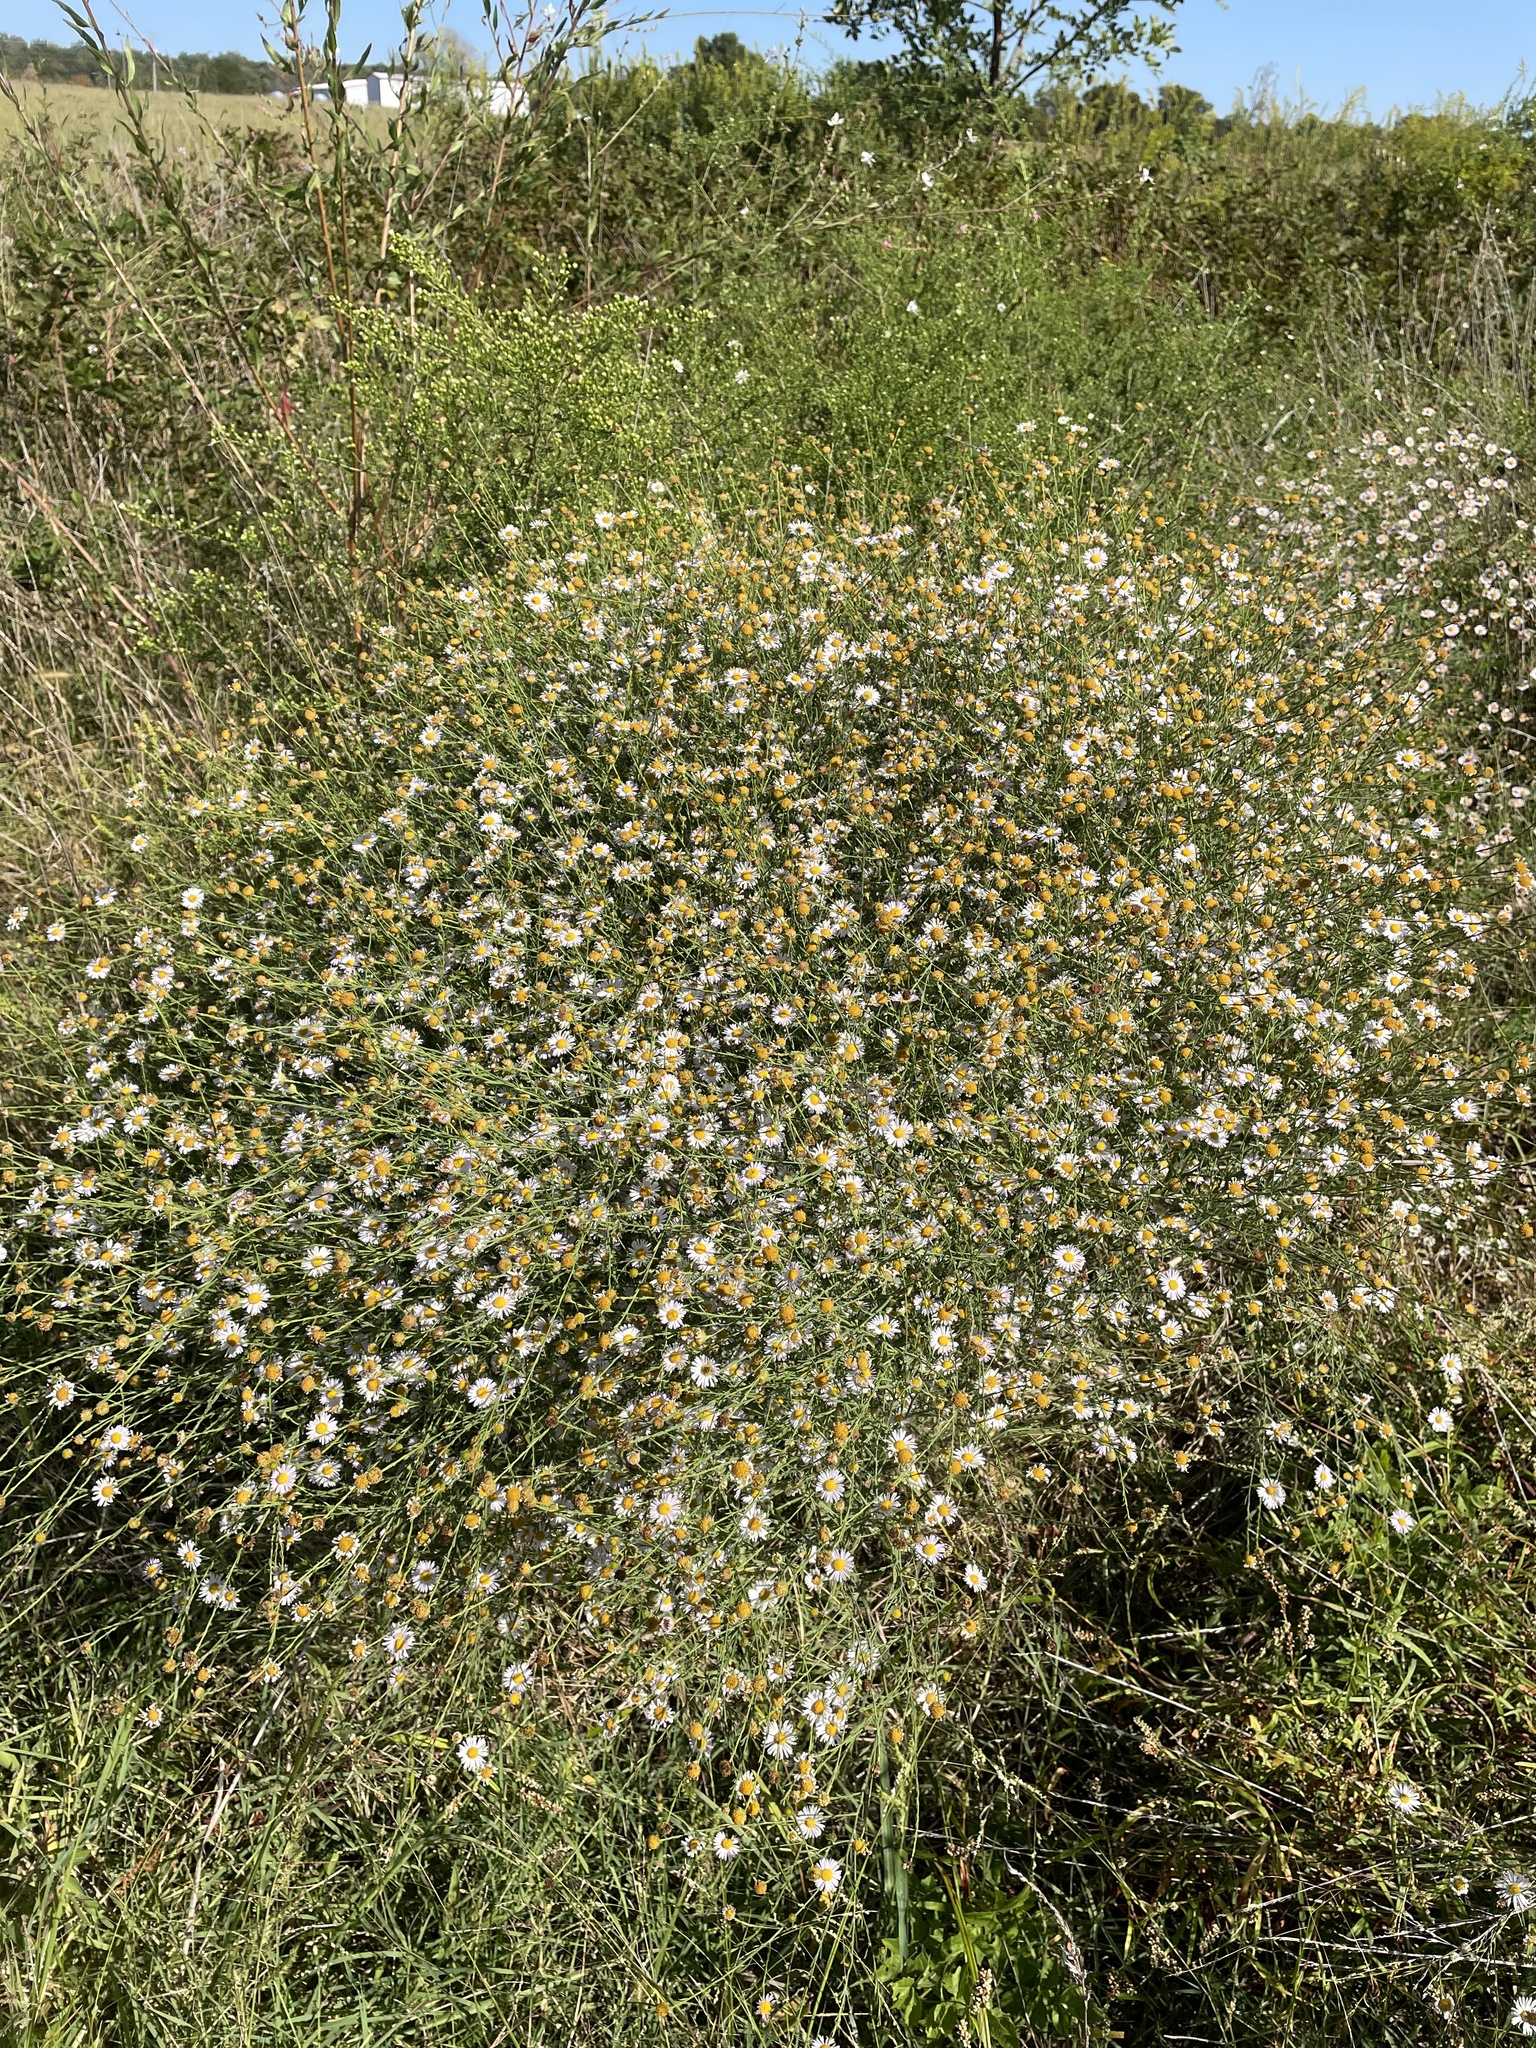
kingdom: Plantae
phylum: Tracheophyta
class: Magnoliopsida
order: Asterales
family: Asteraceae
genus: Boltonia
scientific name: Boltonia asteroides
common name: False chamomile
